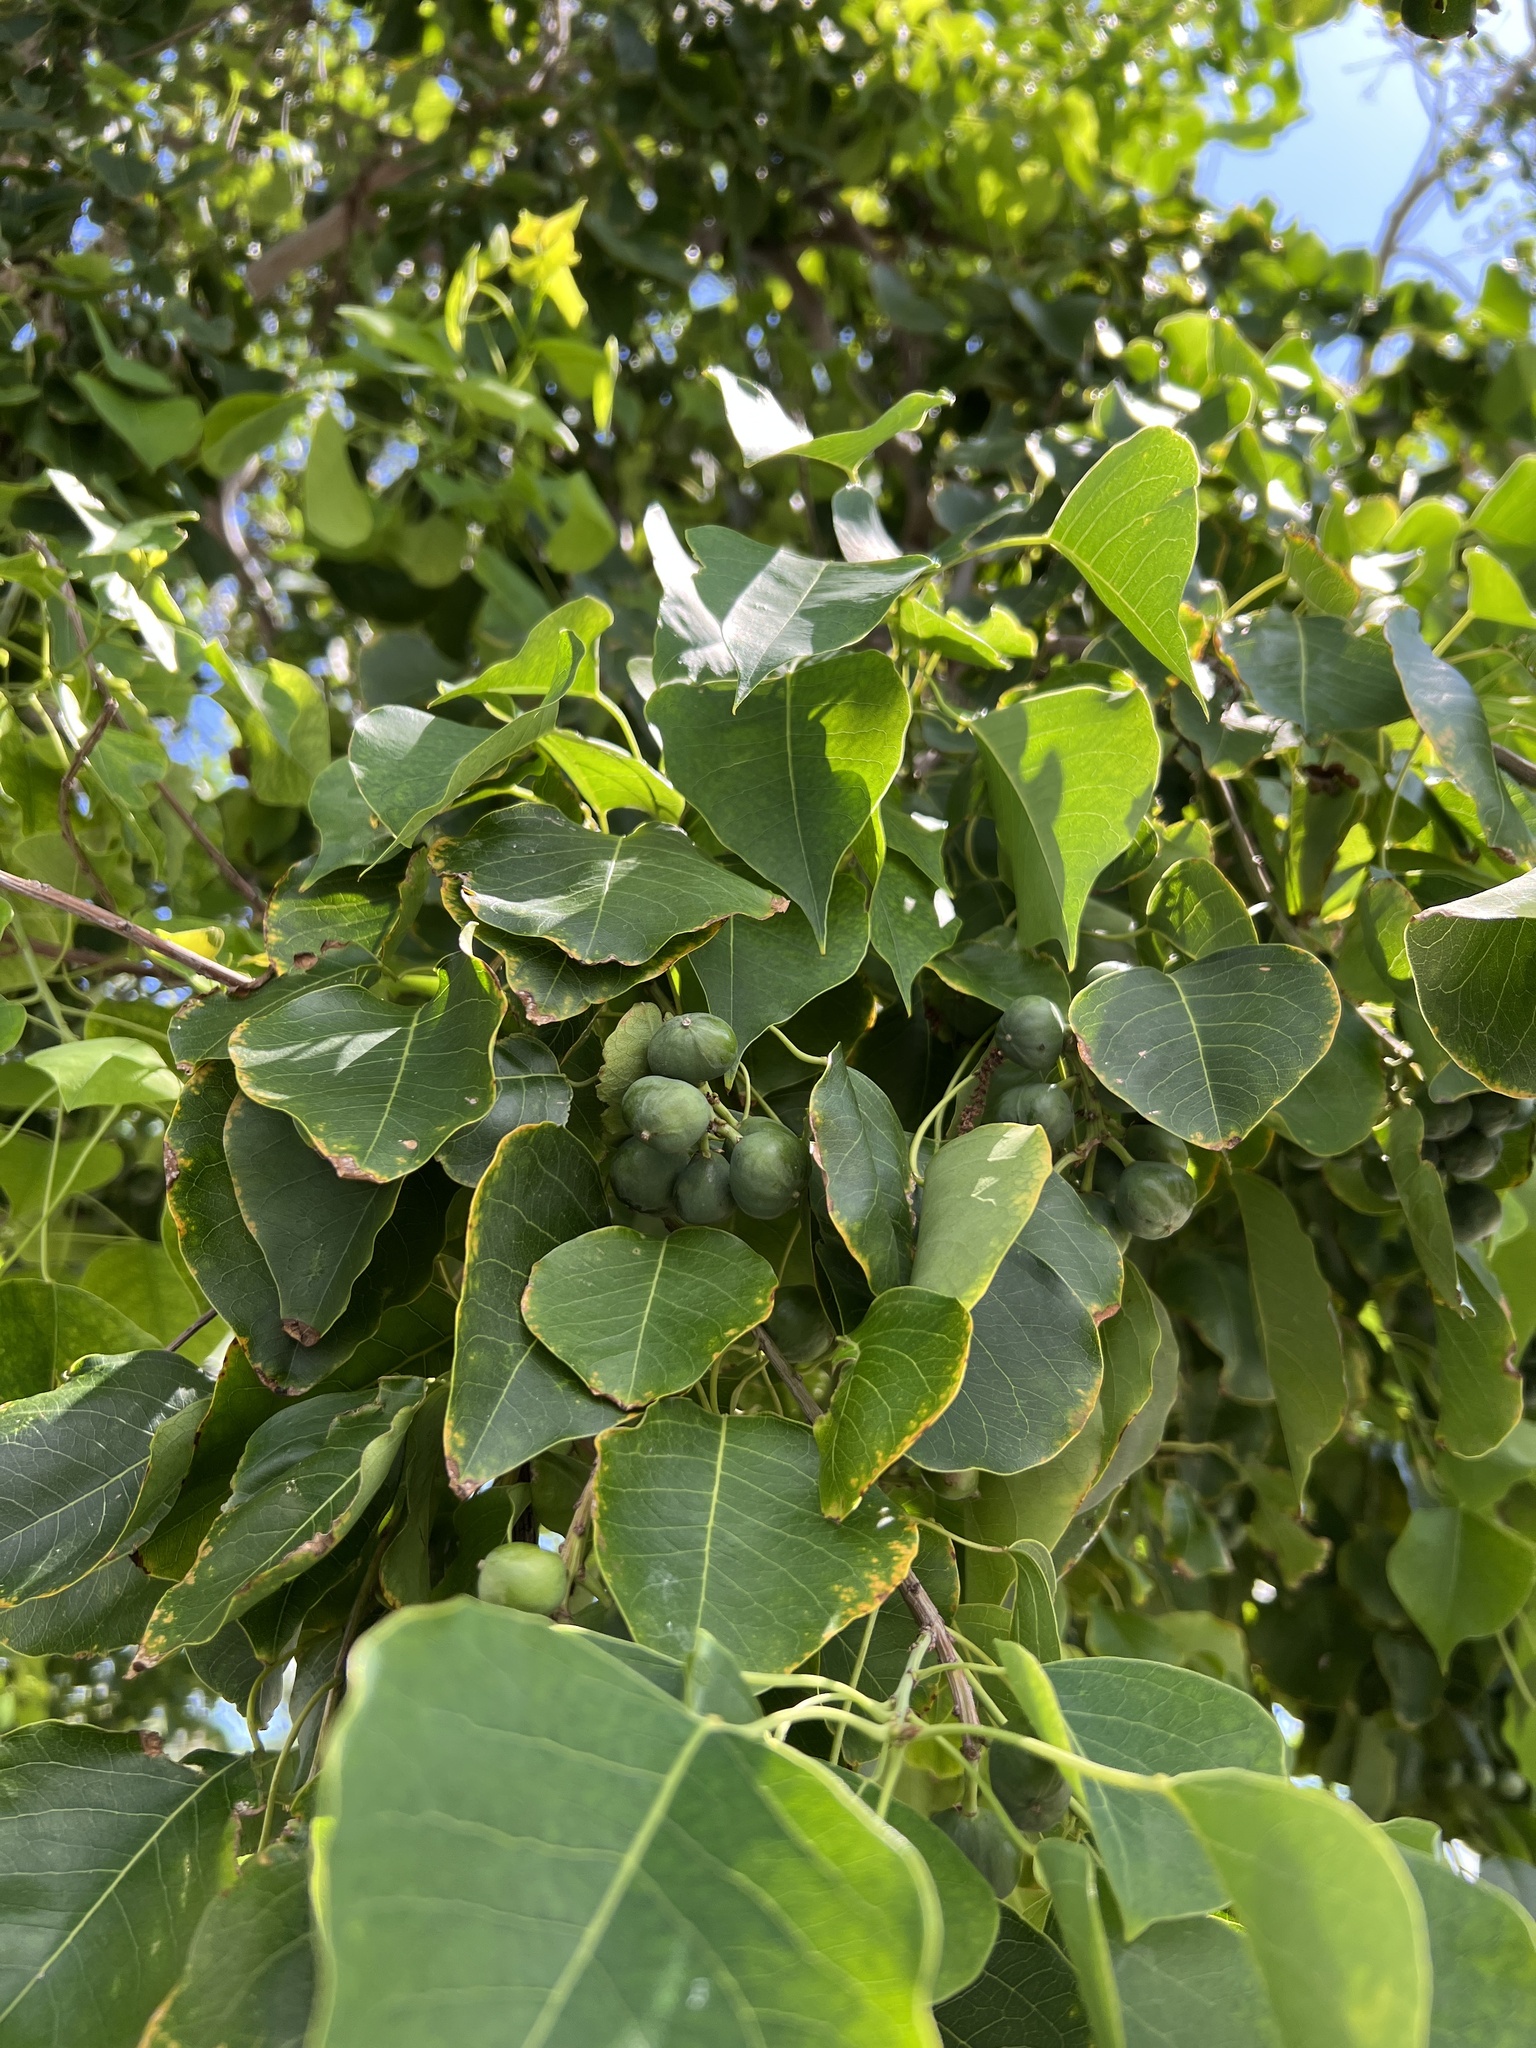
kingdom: Plantae
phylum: Tracheophyta
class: Magnoliopsida
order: Malpighiales
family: Euphorbiaceae
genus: Triadica
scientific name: Triadica sebifera
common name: Chinese tallow
